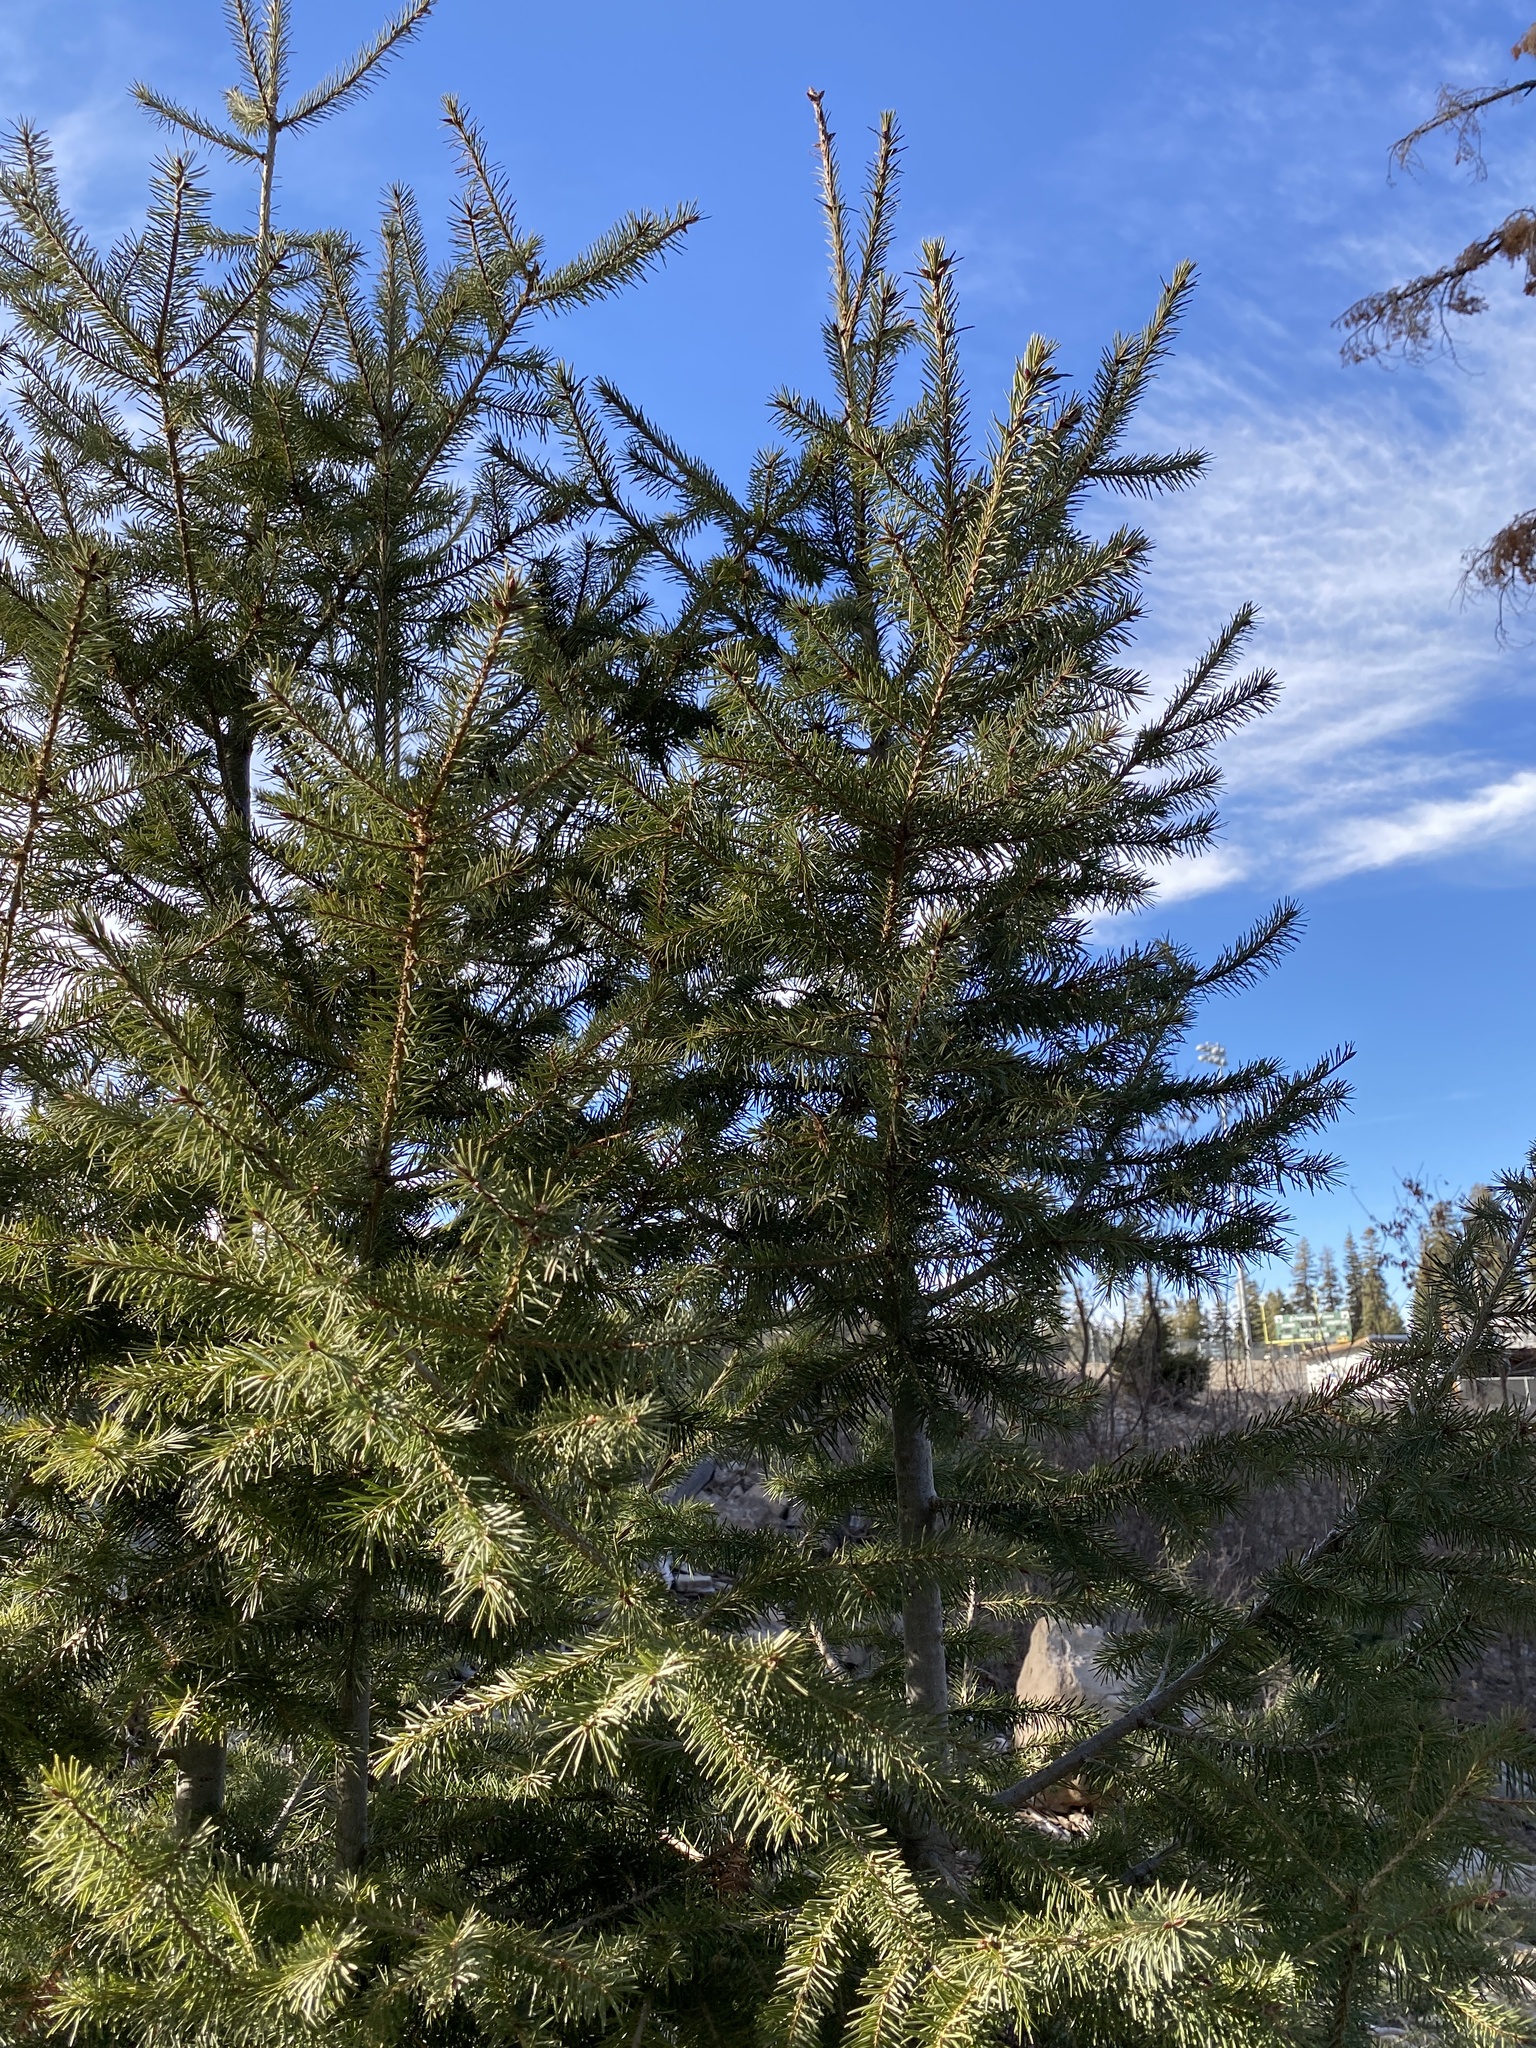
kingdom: Plantae
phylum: Tracheophyta
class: Pinopsida
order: Pinales
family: Pinaceae
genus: Pseudotsuga
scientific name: Pseudotsuga menziesii
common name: Douglas fir
